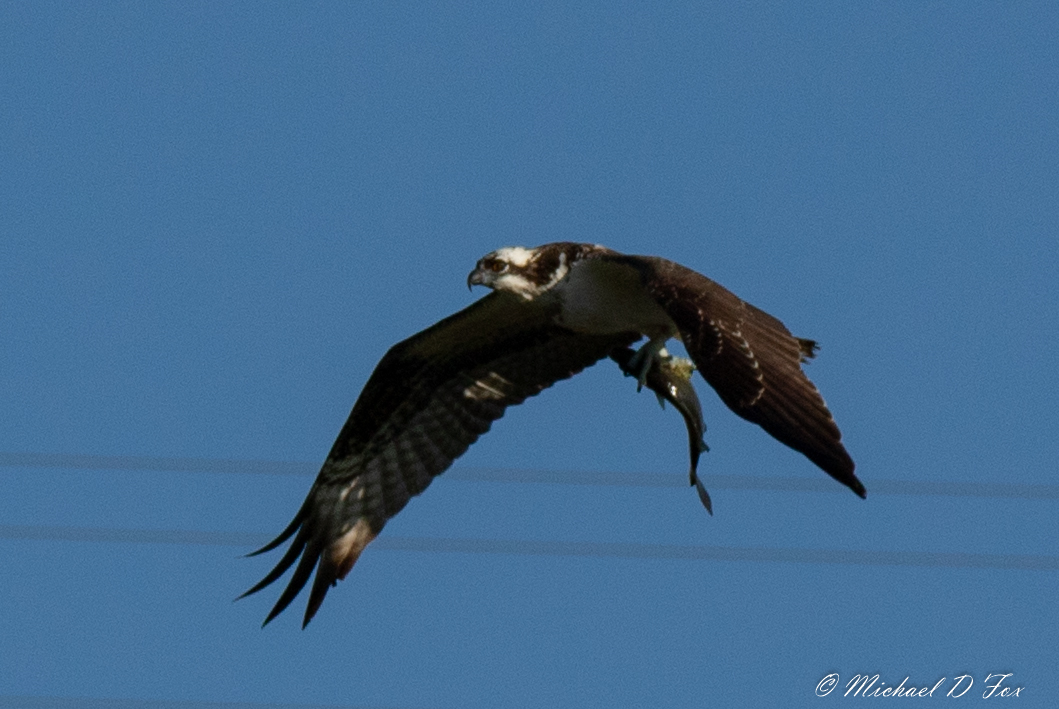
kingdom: Animalia
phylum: Chordata
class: Aves
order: Accipitriformes
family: Pandionidae
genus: Pandion
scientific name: Pandion haliaetus
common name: Osprey
